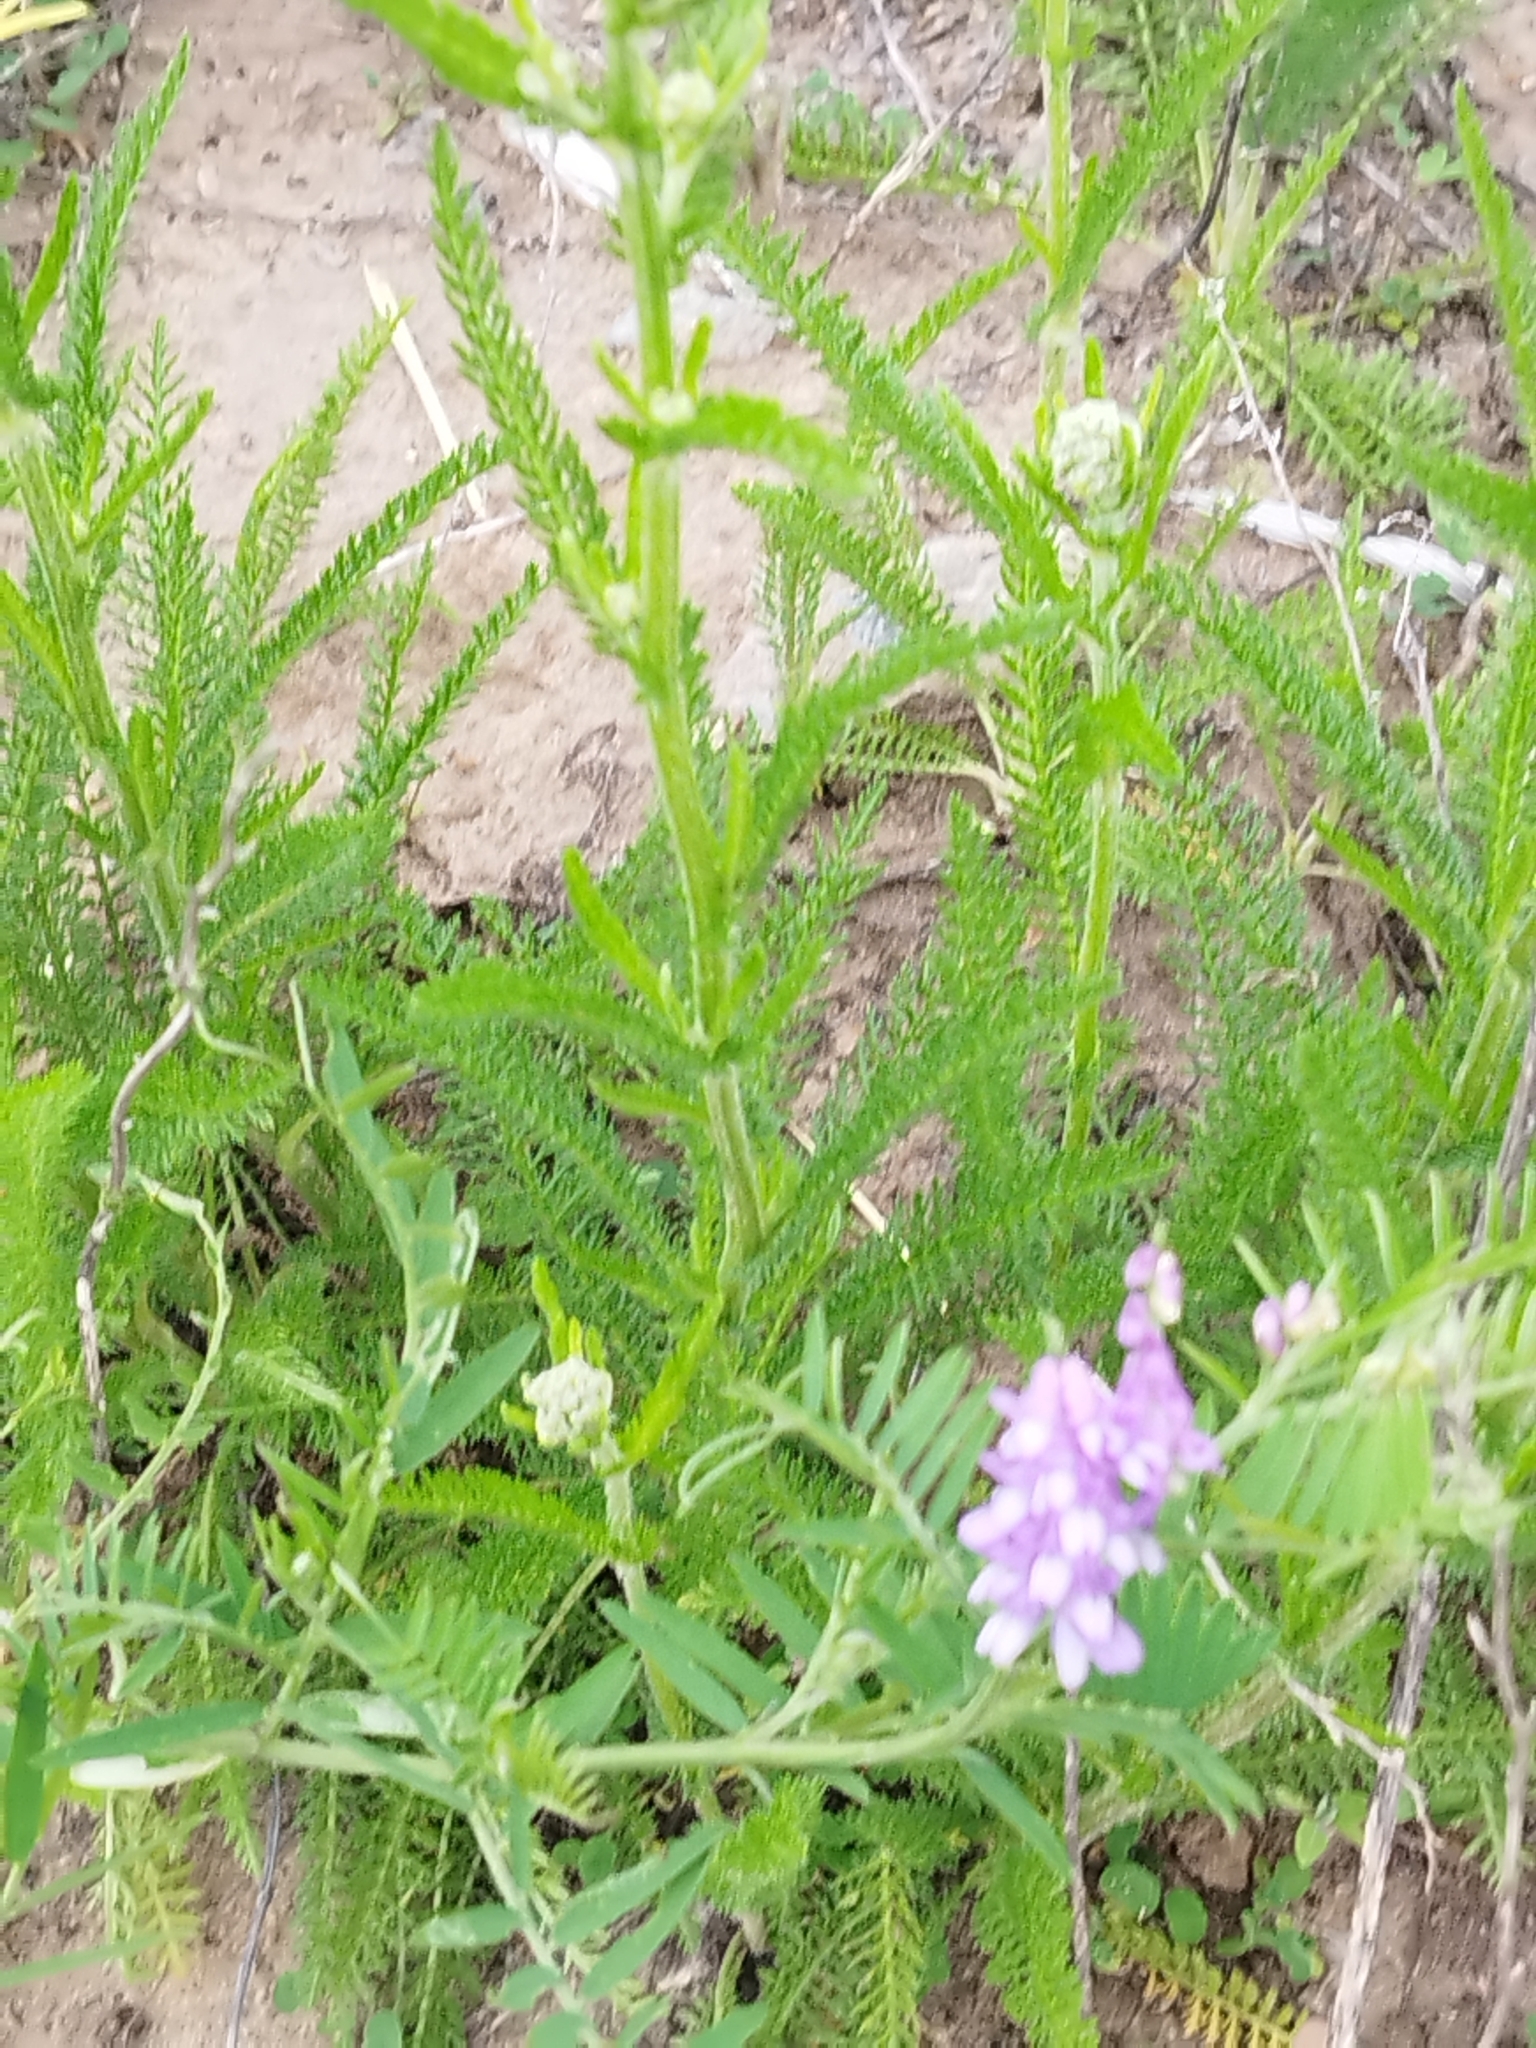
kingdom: Plantae
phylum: Tracheophyta
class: Magnoliopsida
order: Fabales
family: Fabaceae
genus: Vicia
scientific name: Vicia cracca
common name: Bird vetch
